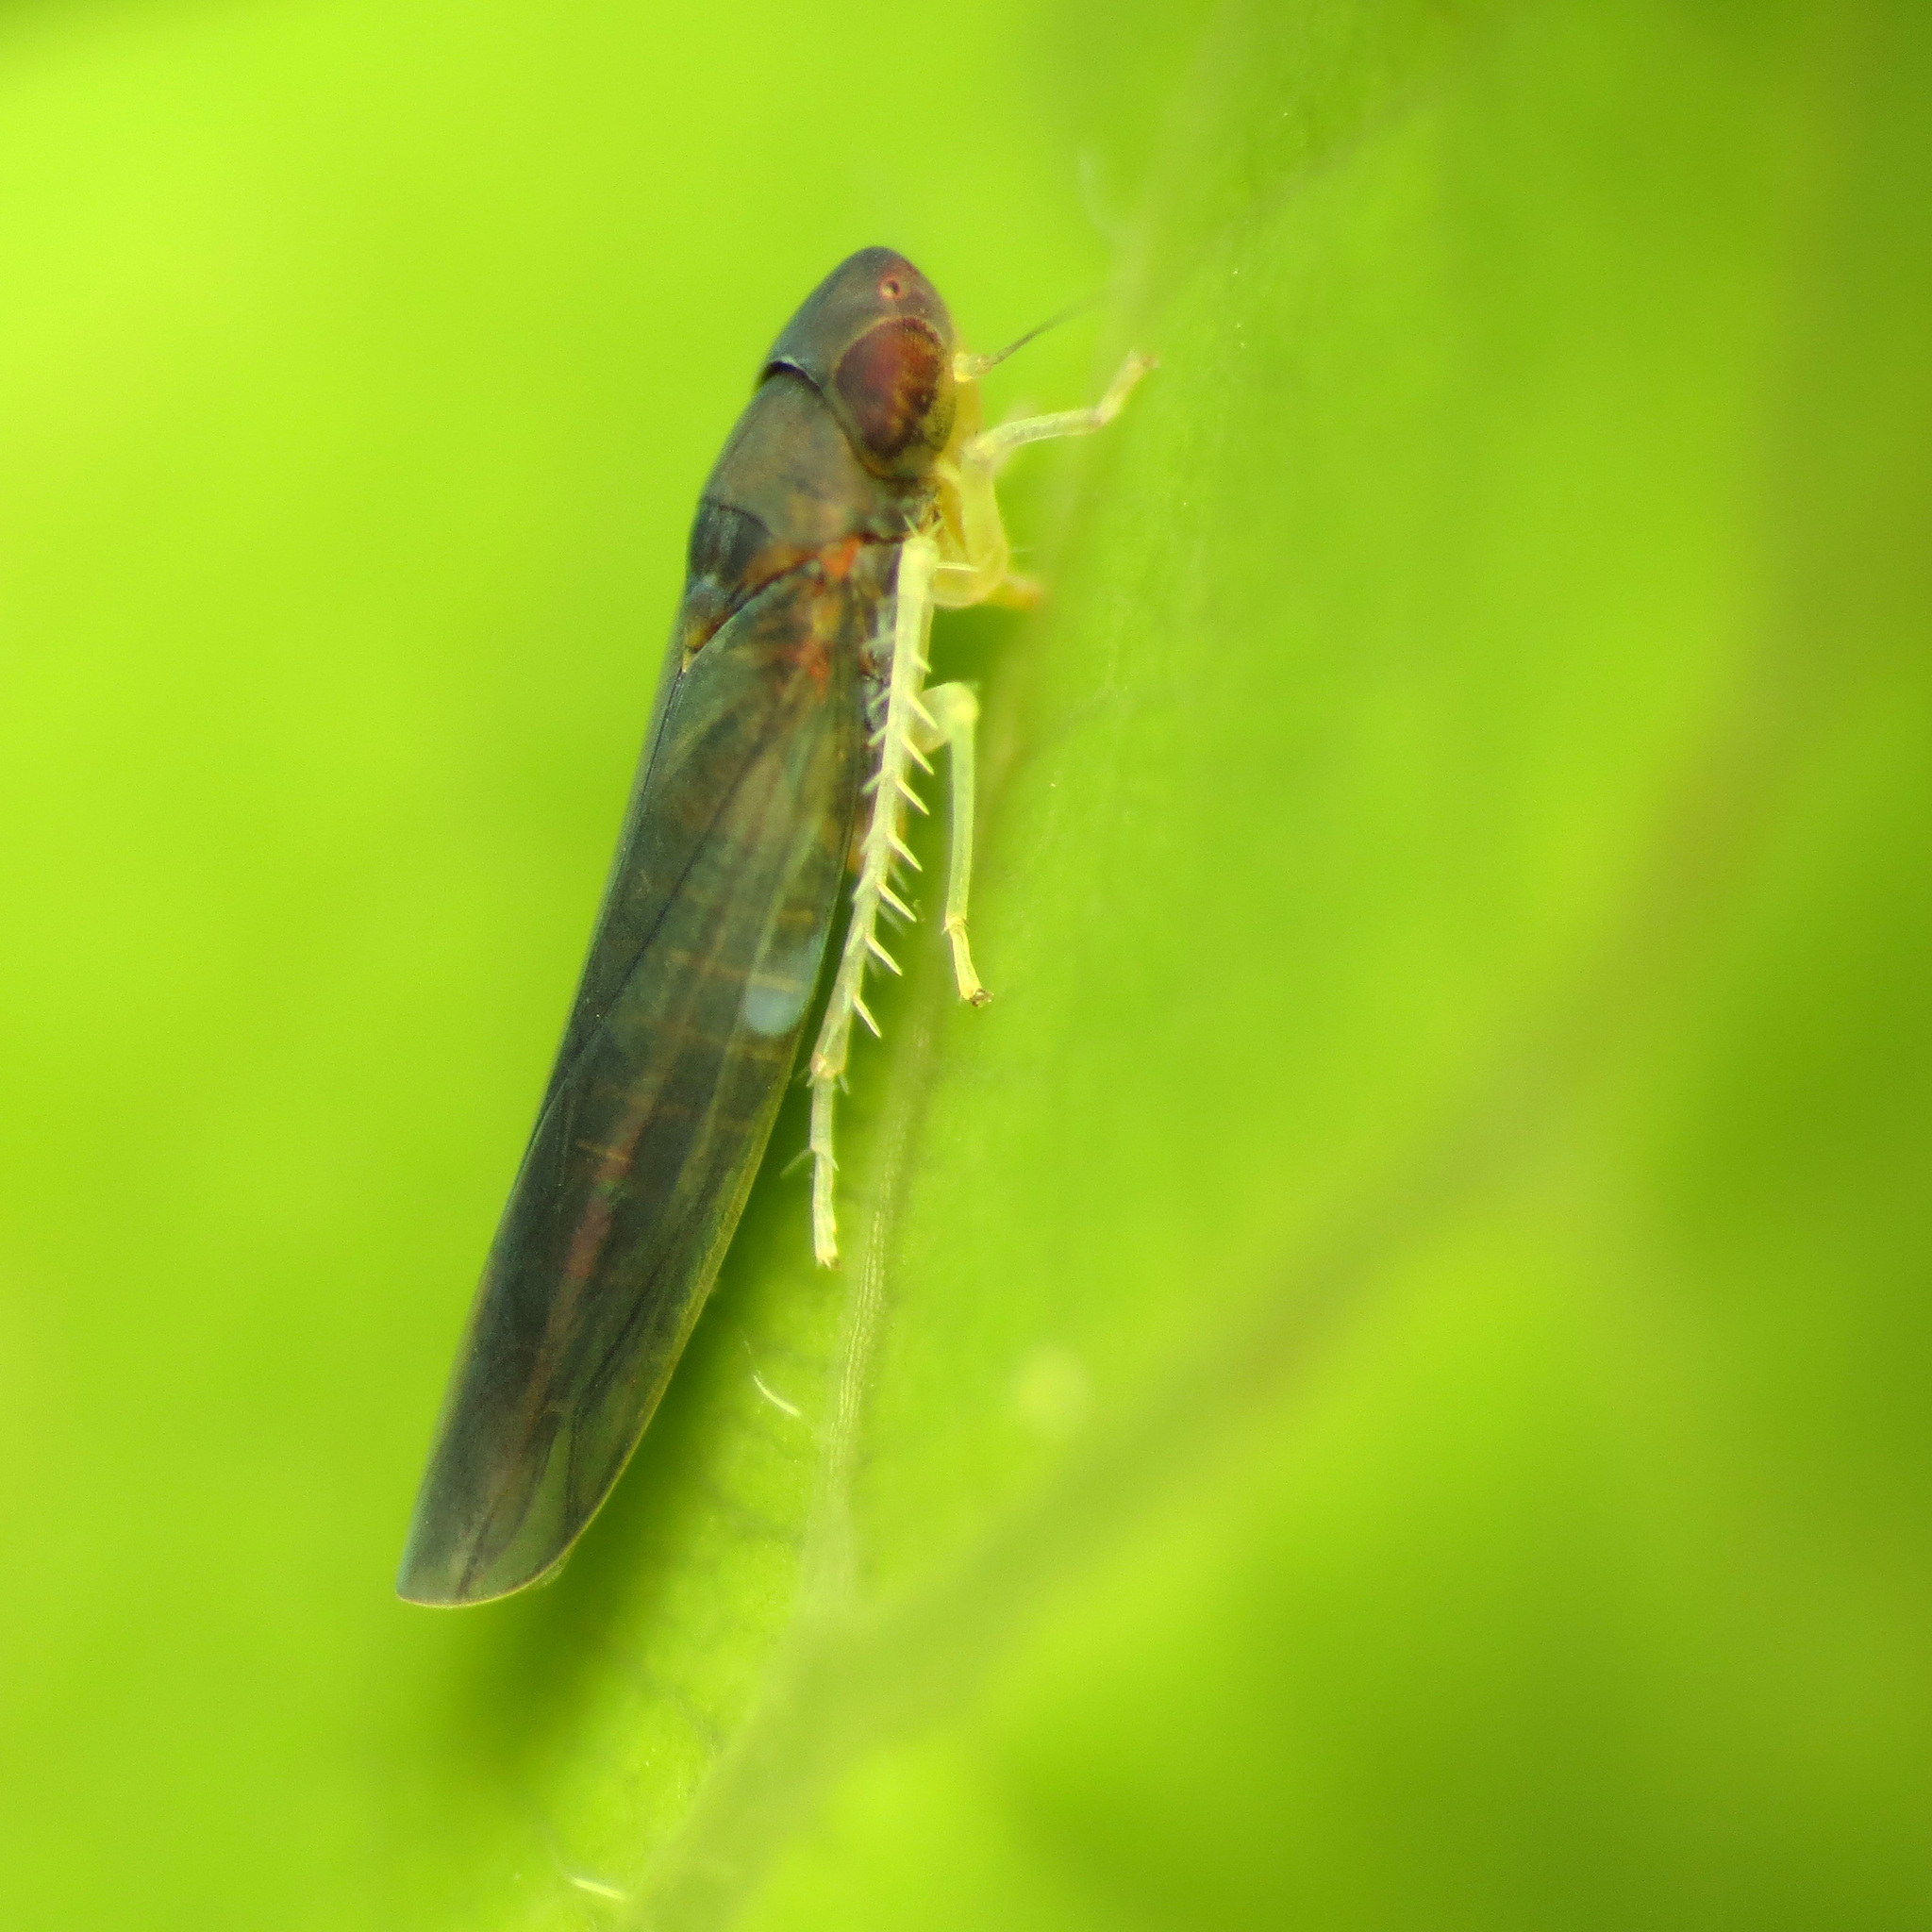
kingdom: Animalia
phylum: Arthropoda
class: Insecta
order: Hemiptera
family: Cicadellidae
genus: Joruma
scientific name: Joruma pisca
